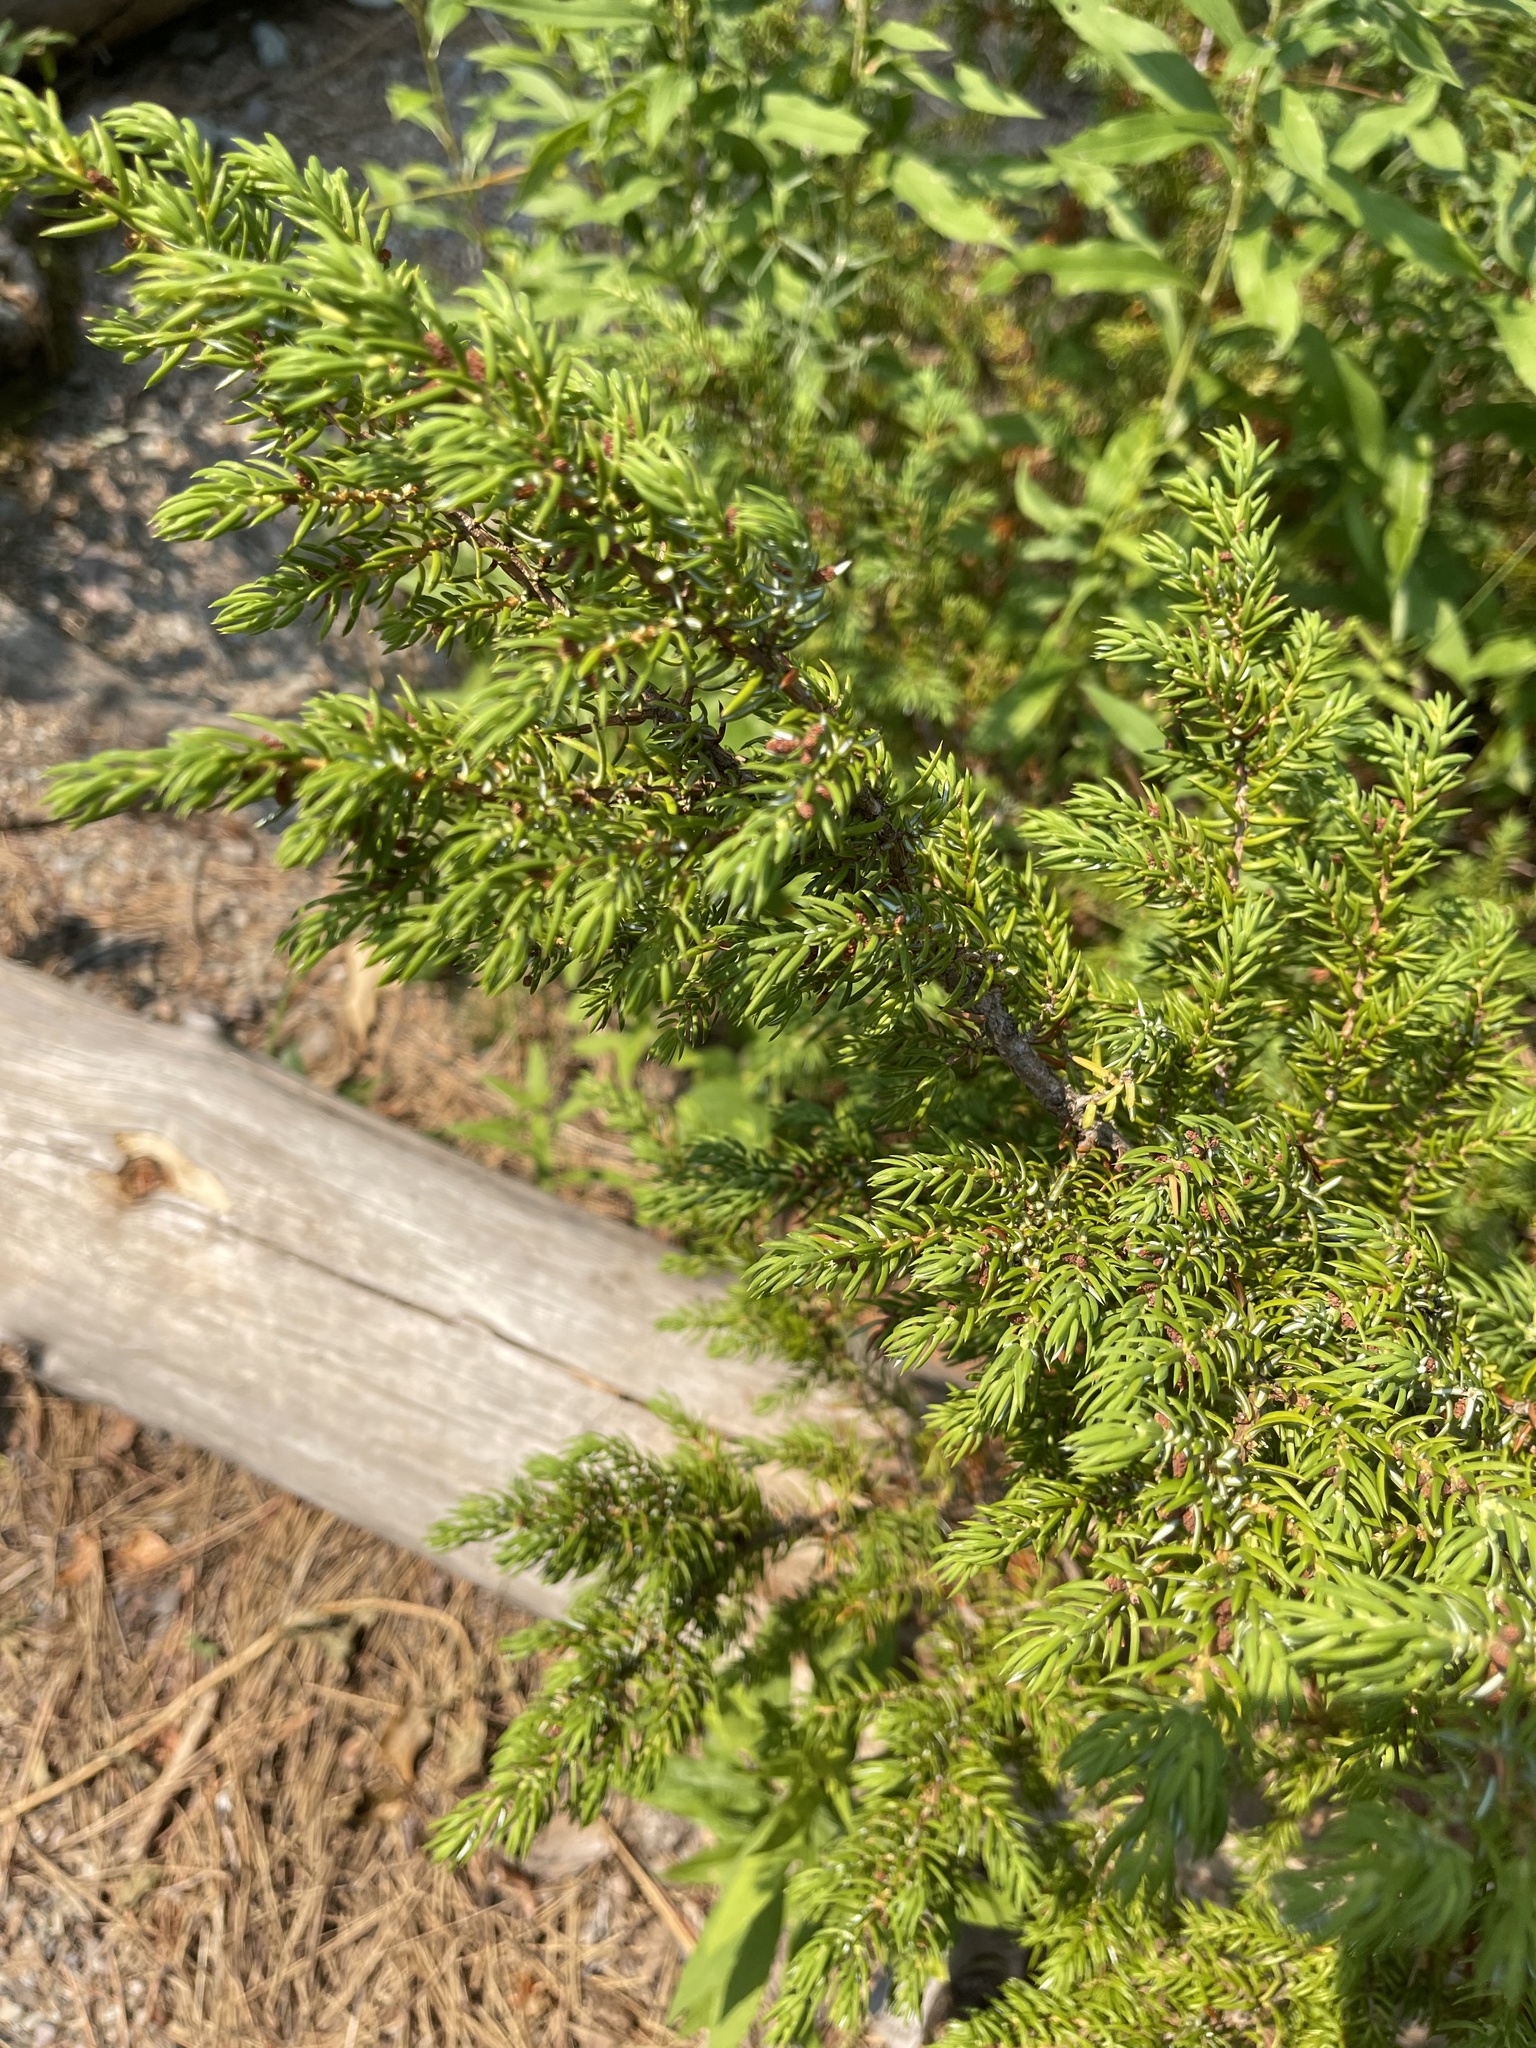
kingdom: Plantae
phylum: Tracheophyta
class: Pinopsida
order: Pinales
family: Cupressaceae
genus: Juniperus
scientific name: Juniperus communis
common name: Common juniper
